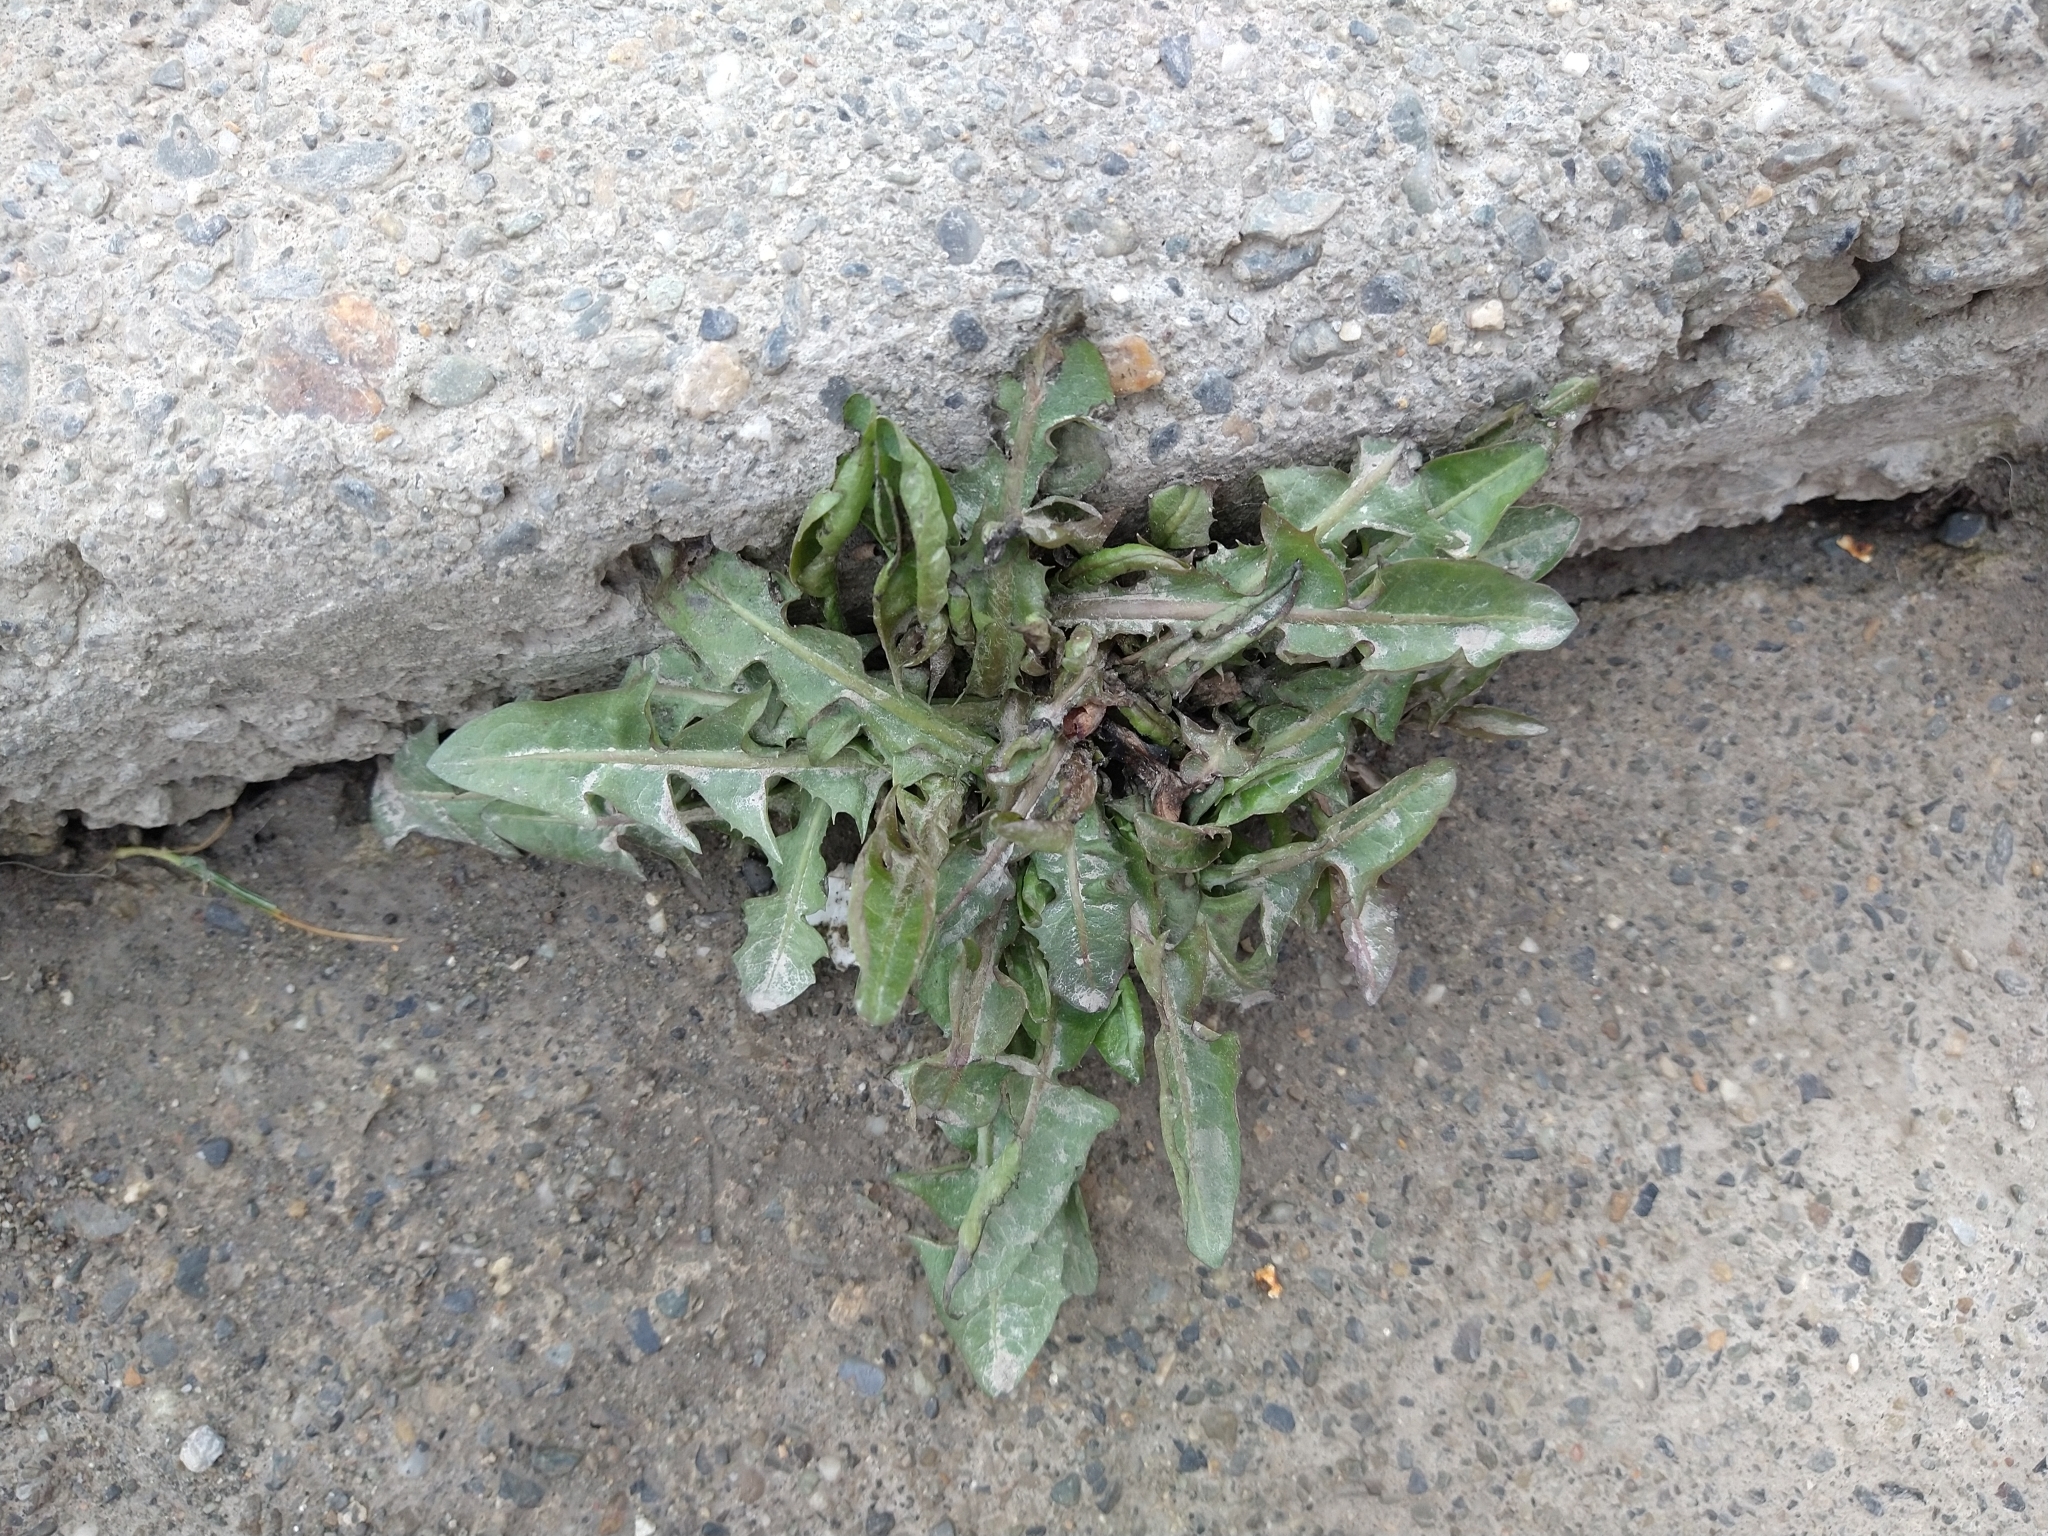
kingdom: Plantae
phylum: Tracheophyta
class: Magnoliopsida
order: Asterales
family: Asteraceae
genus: Taraxacum
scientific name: Taraxacum officinale
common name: Common dandelion
